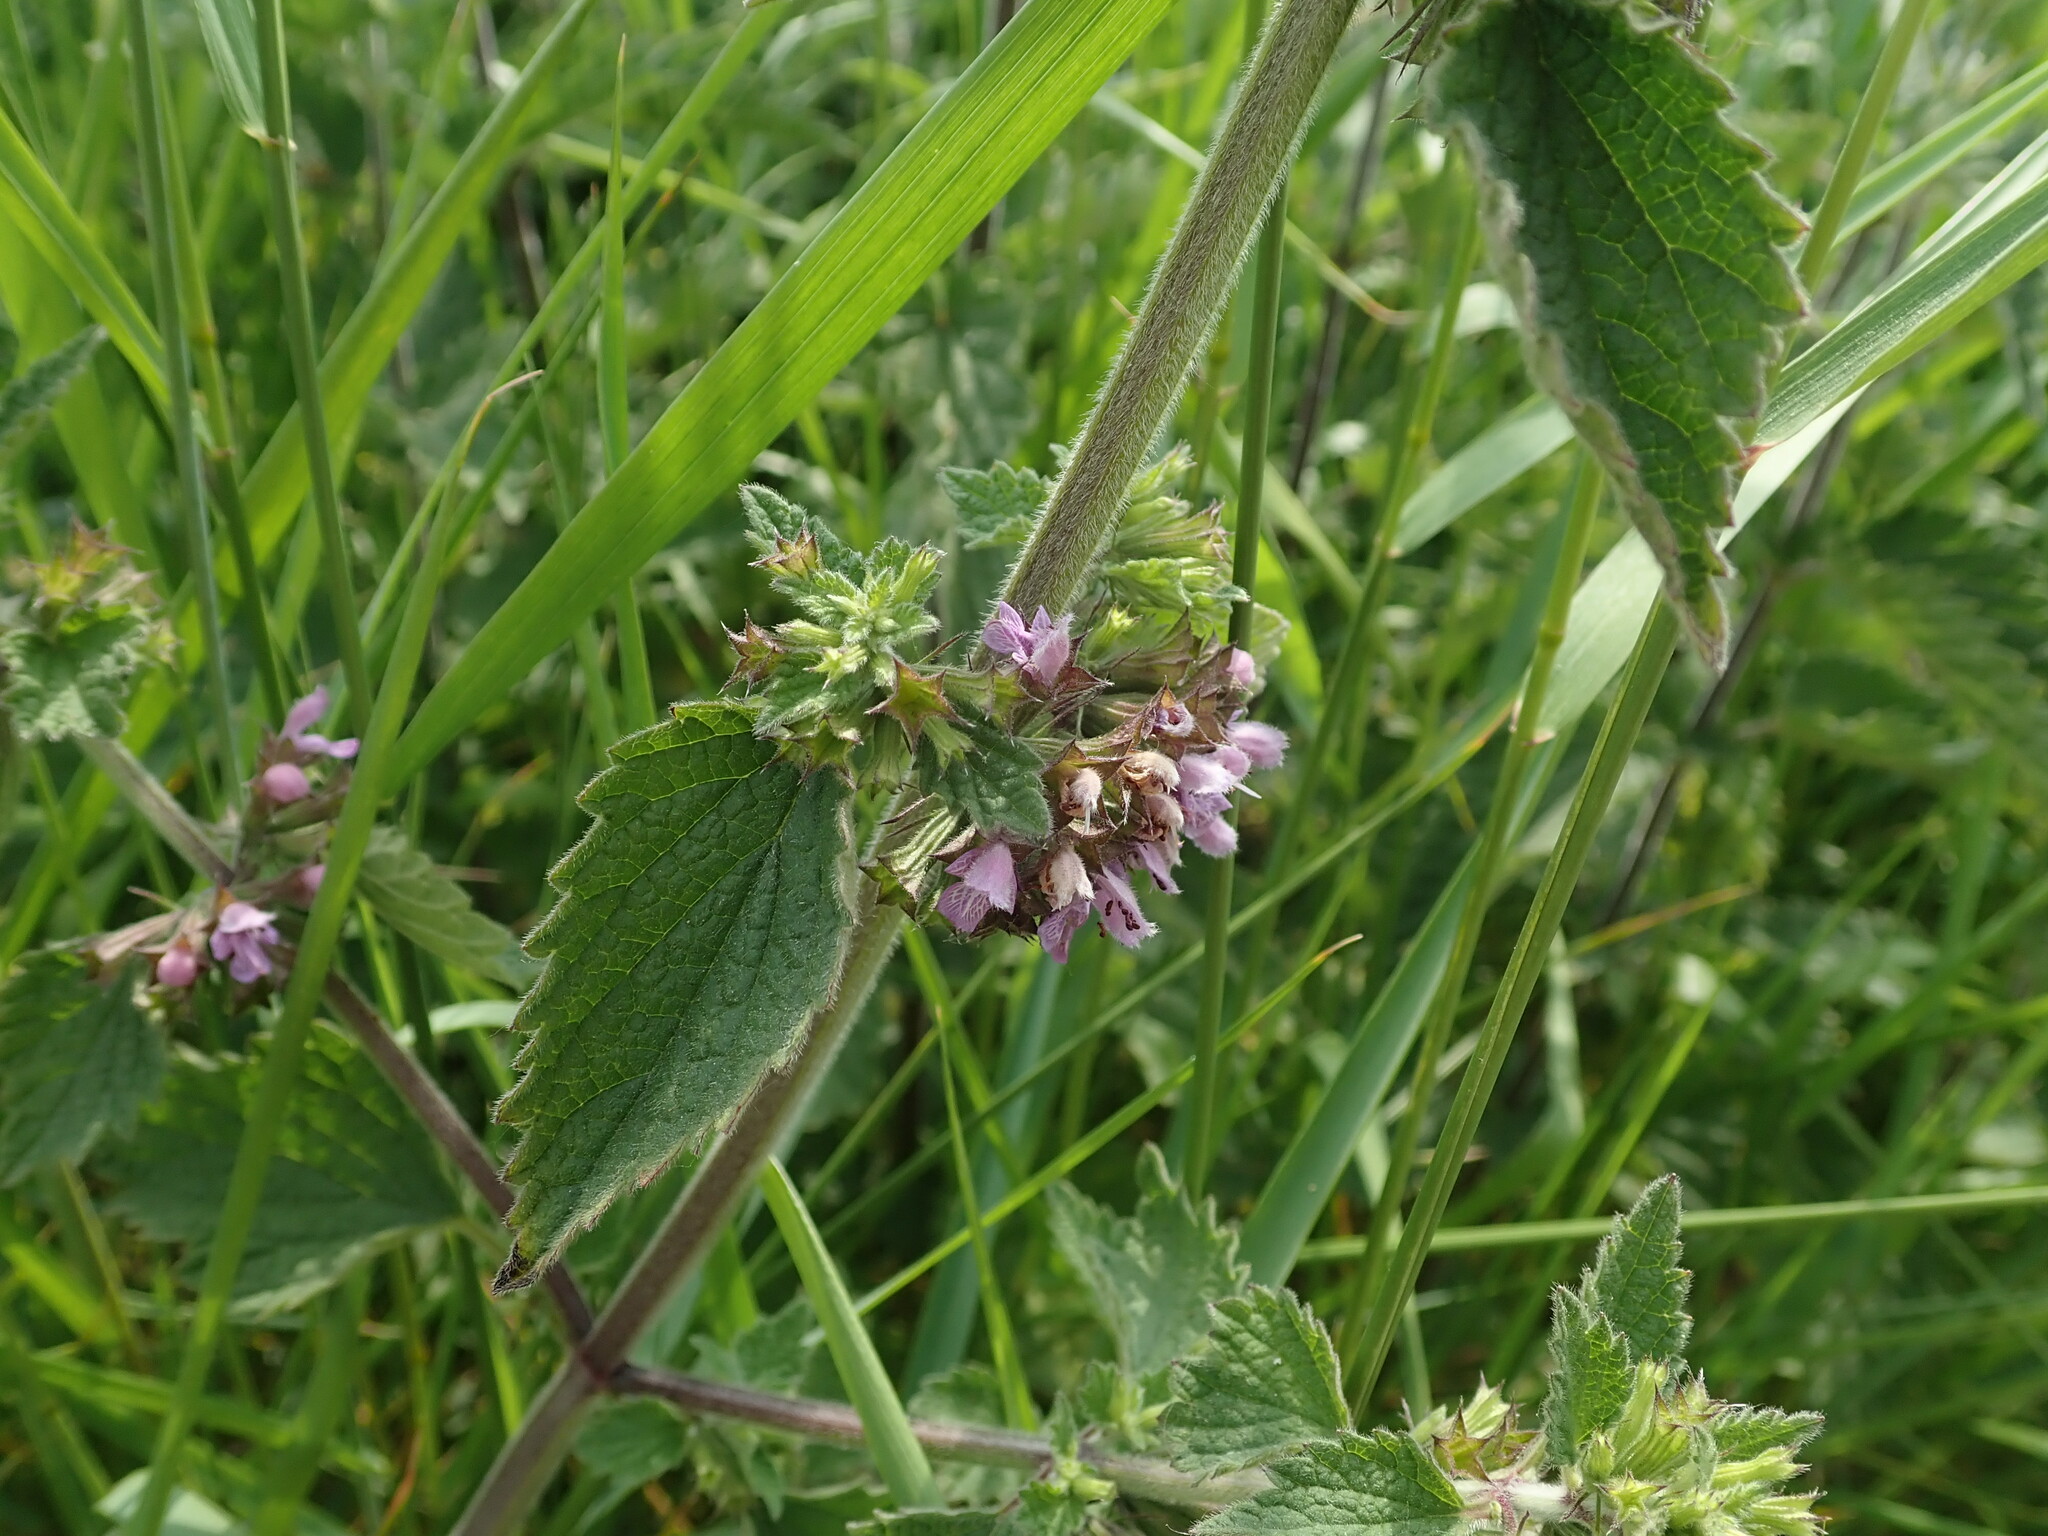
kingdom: Plantae
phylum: Tracheophyta
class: Magnoliopsida
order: Lamiales
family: Lamiaceae
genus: Ballota
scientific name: Ballota nigra
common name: Black horehound
